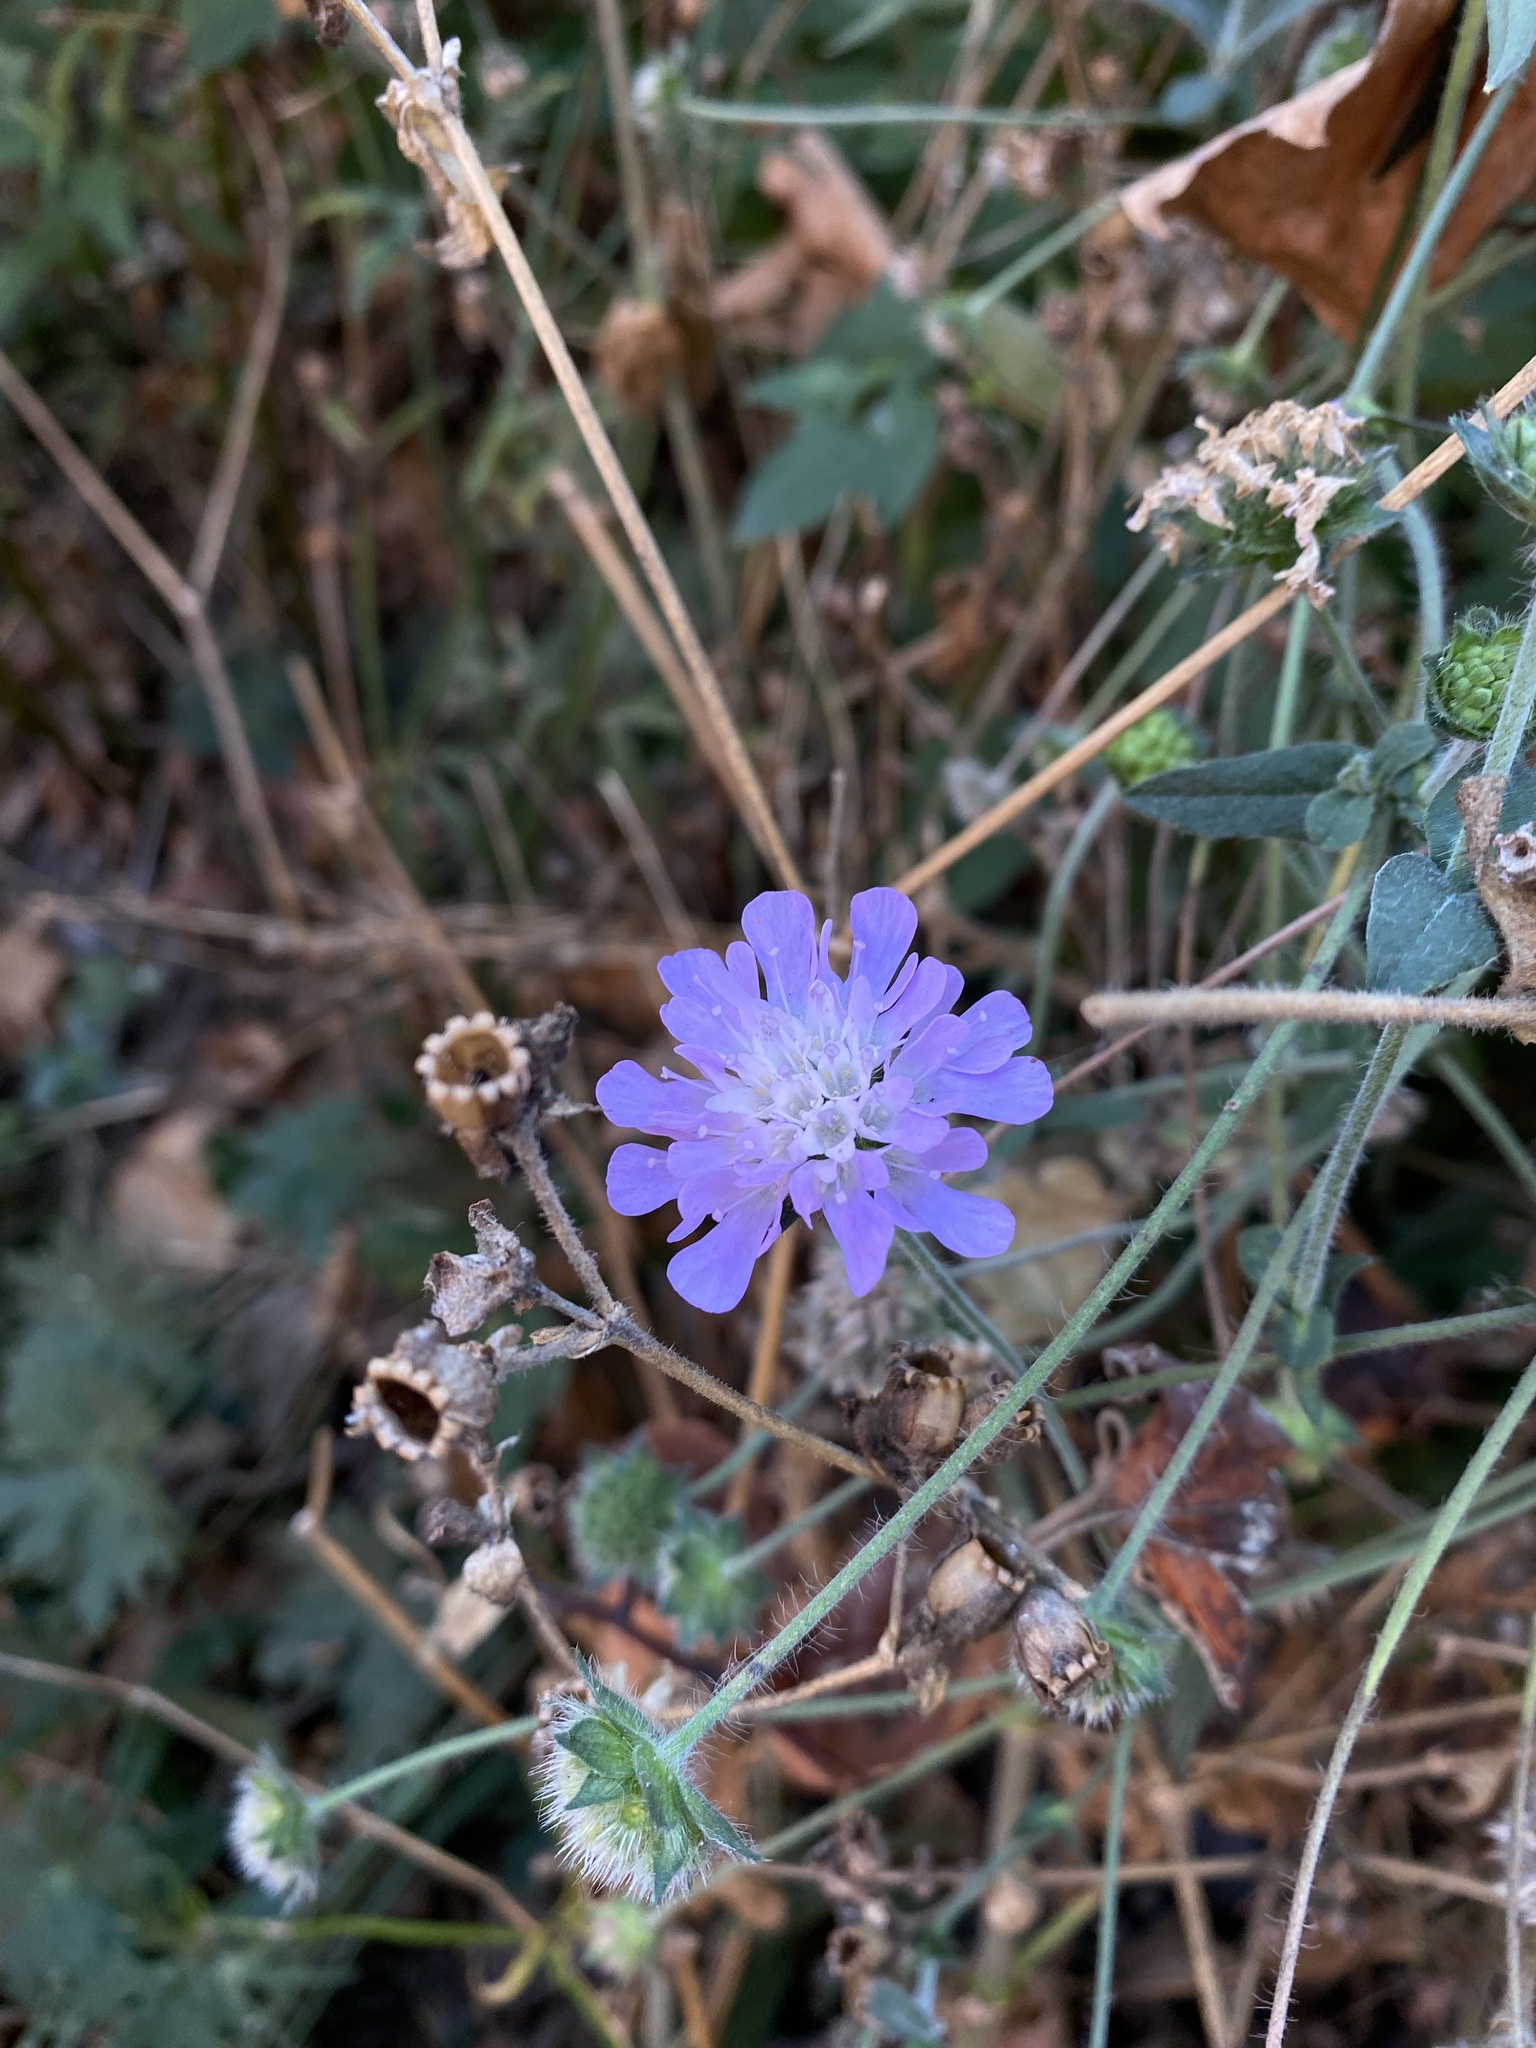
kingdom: Plantae
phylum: Tracheophyta
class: Magnoliopsida
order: Dipsacales
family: Caprifoliaceae
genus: Knautia
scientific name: Knautia arvensis
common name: Field scabiosa
